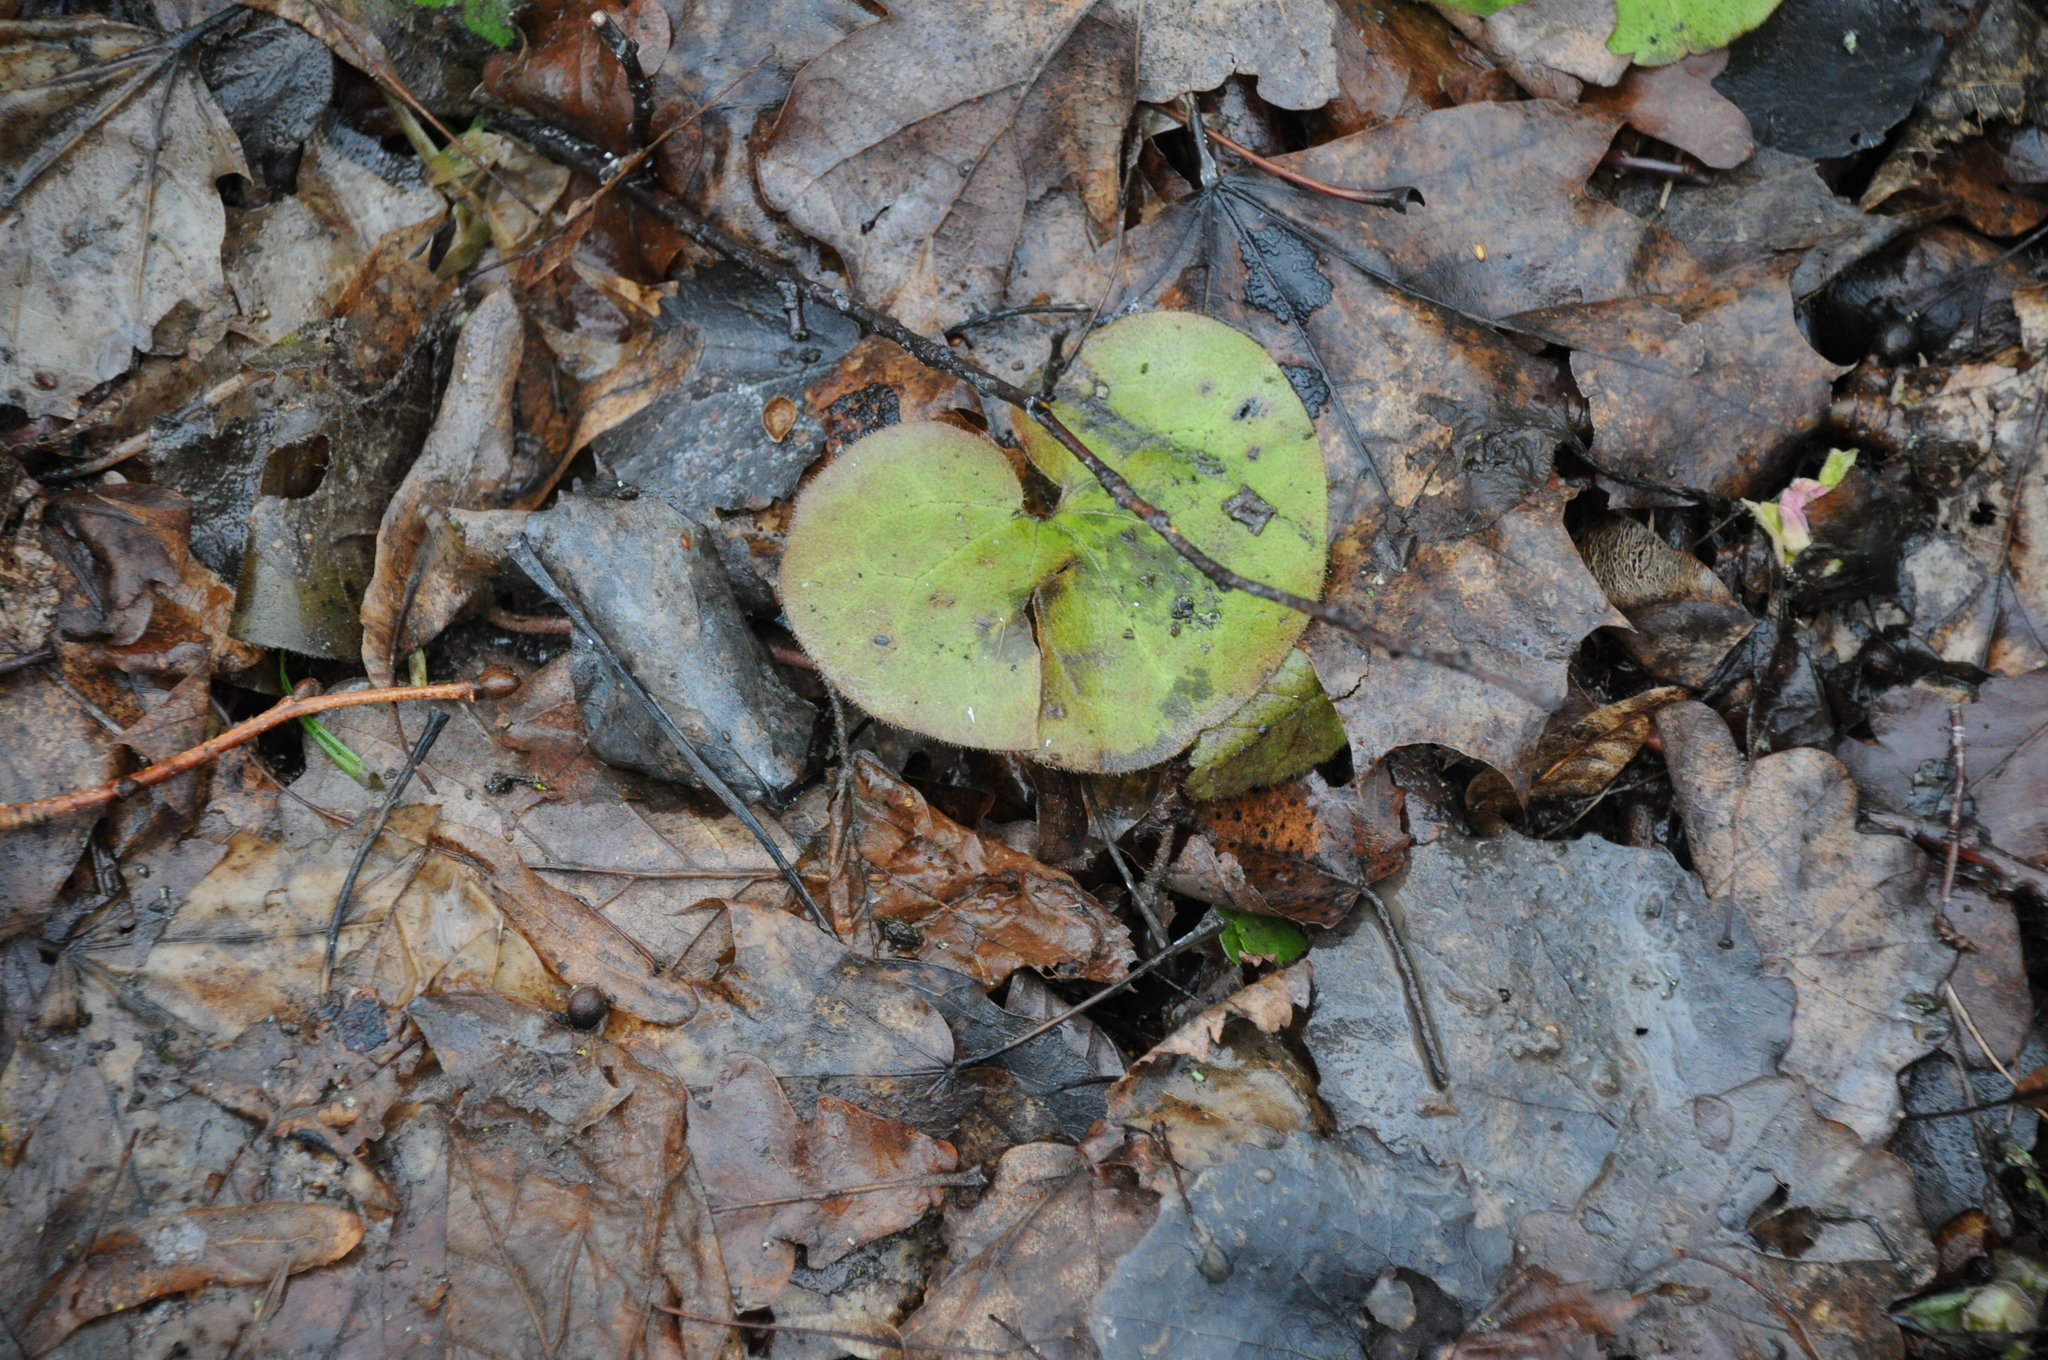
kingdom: Plantae
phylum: Tracheophyta
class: Magnoliopsida
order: Piperales
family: Aristolochiaceae
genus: Asarum
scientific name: Asarum europaeum
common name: Asarabacca
